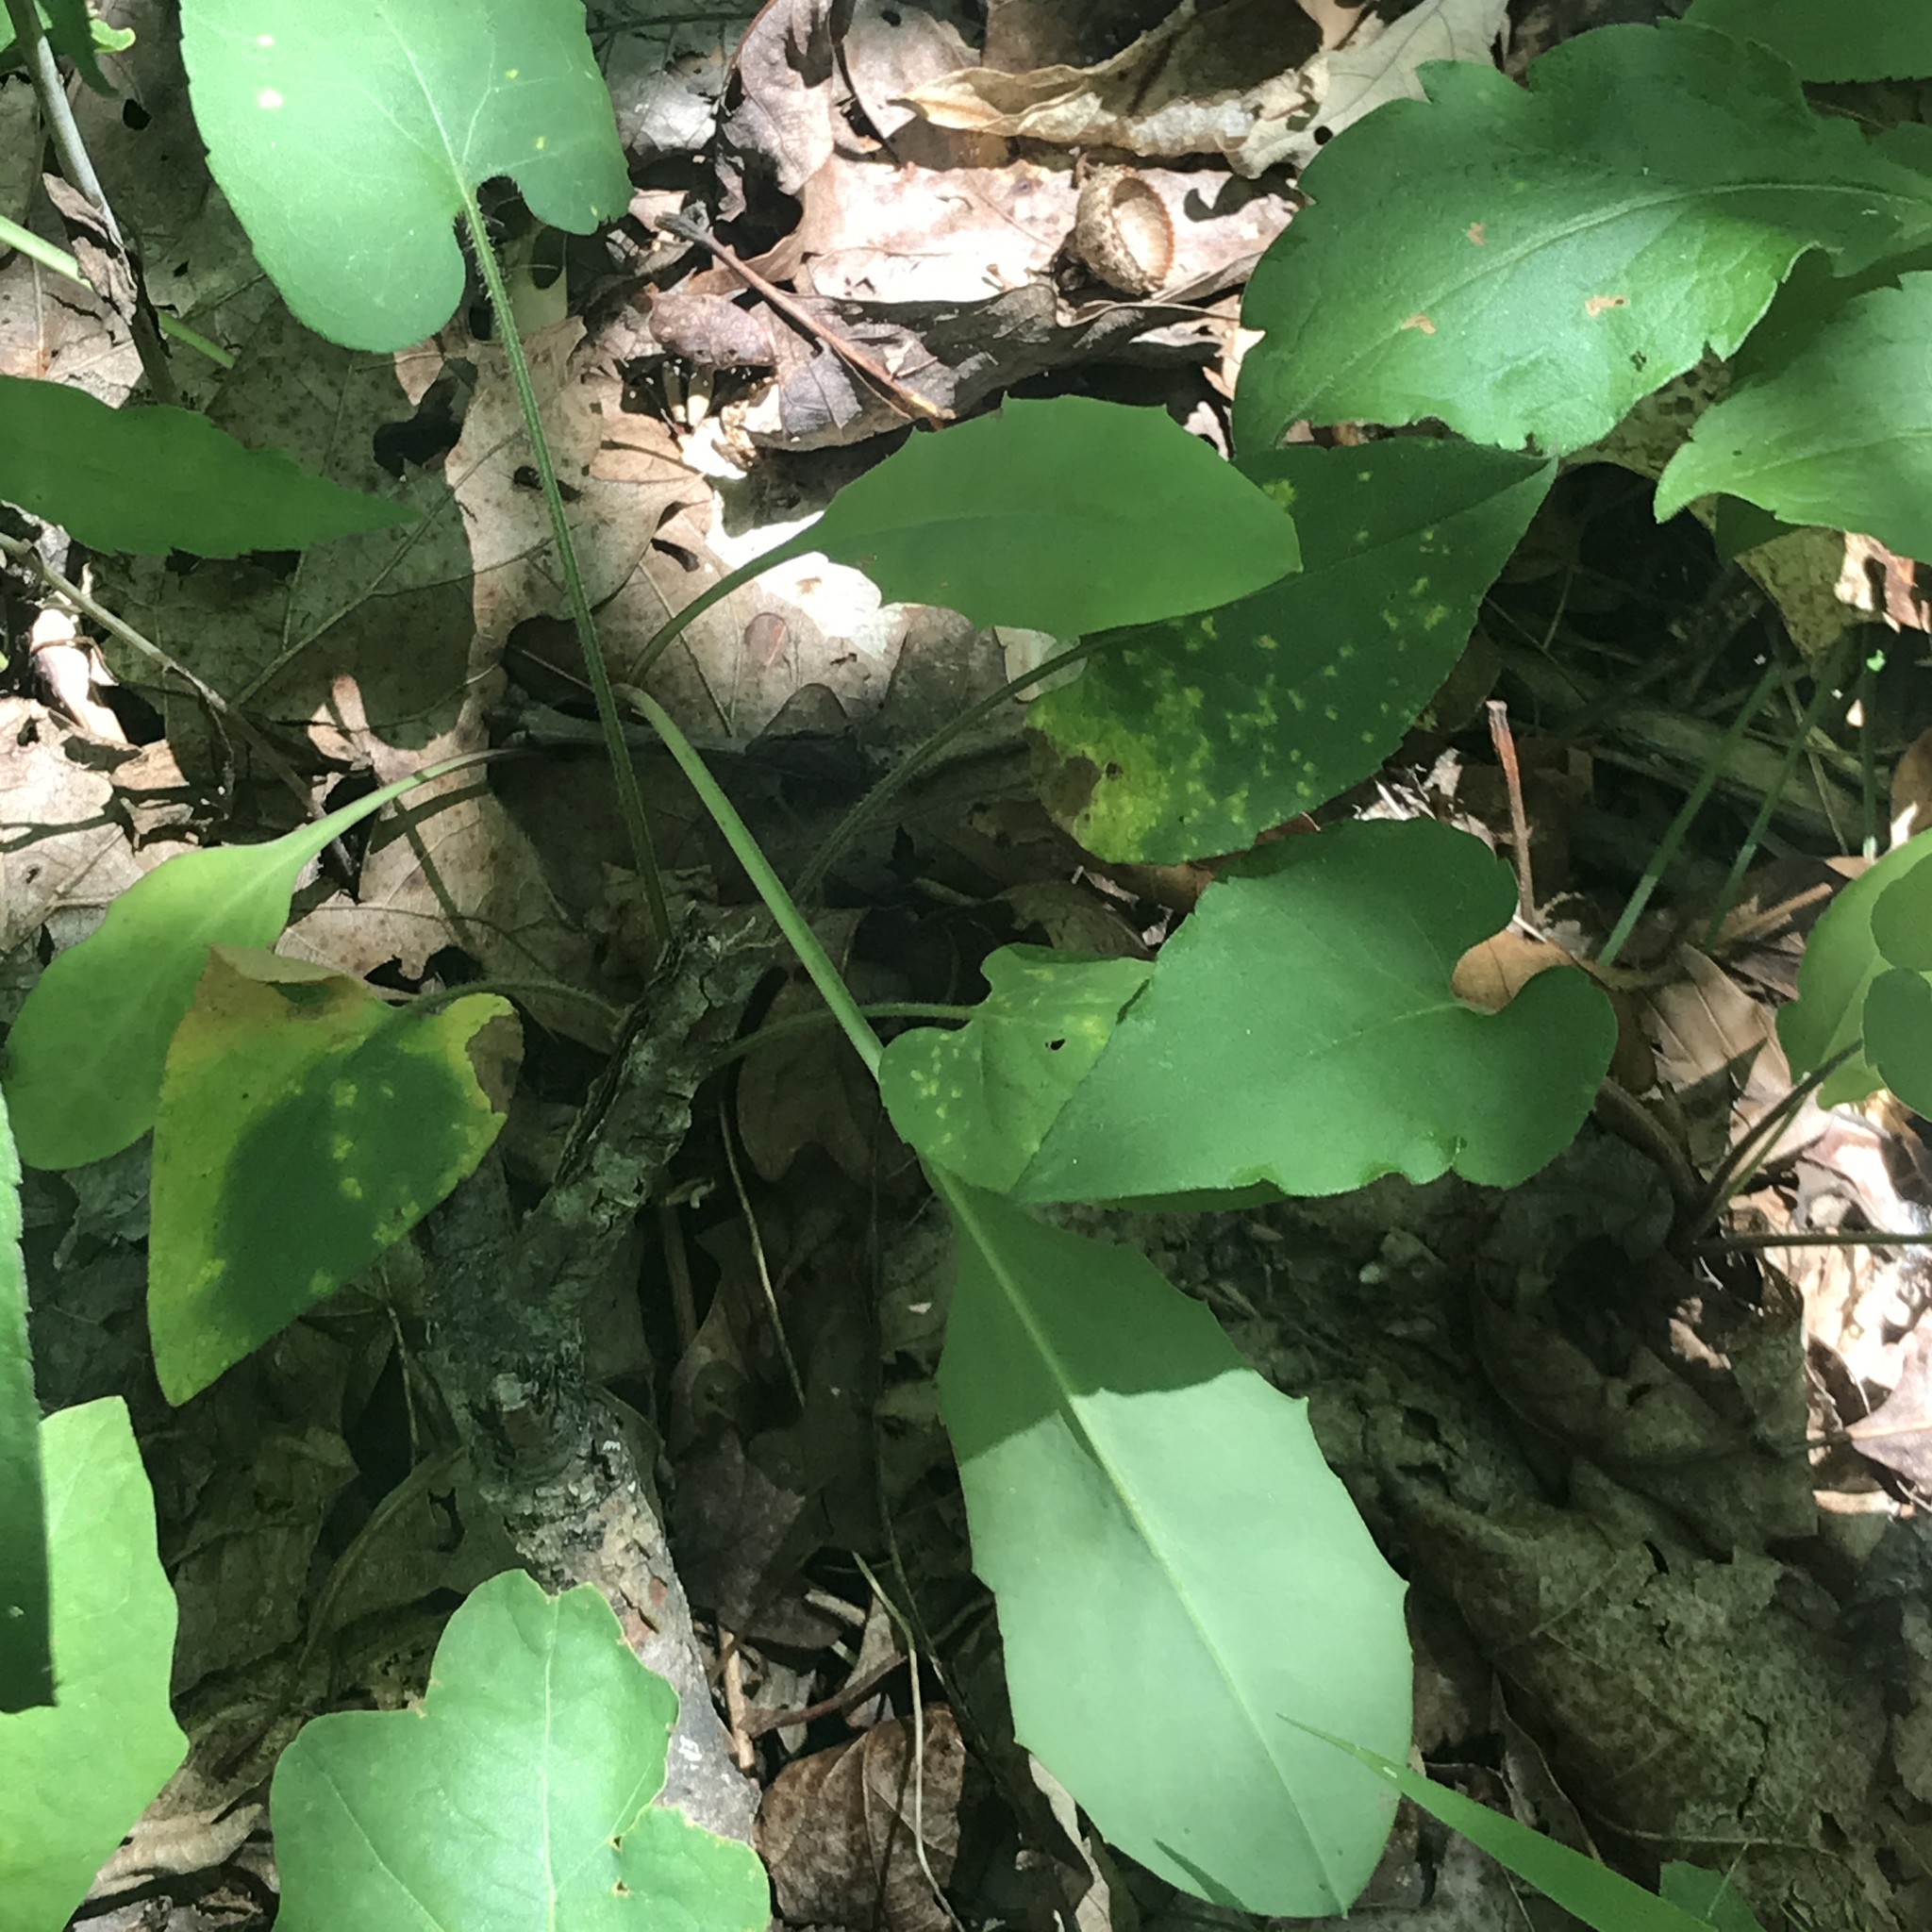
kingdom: Plantae
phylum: Tracheophyta
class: Magnoliopsida
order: Asterales
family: Asteraceae
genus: Krigia
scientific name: Krigia biflora
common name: Orange dwarf-dandelion
